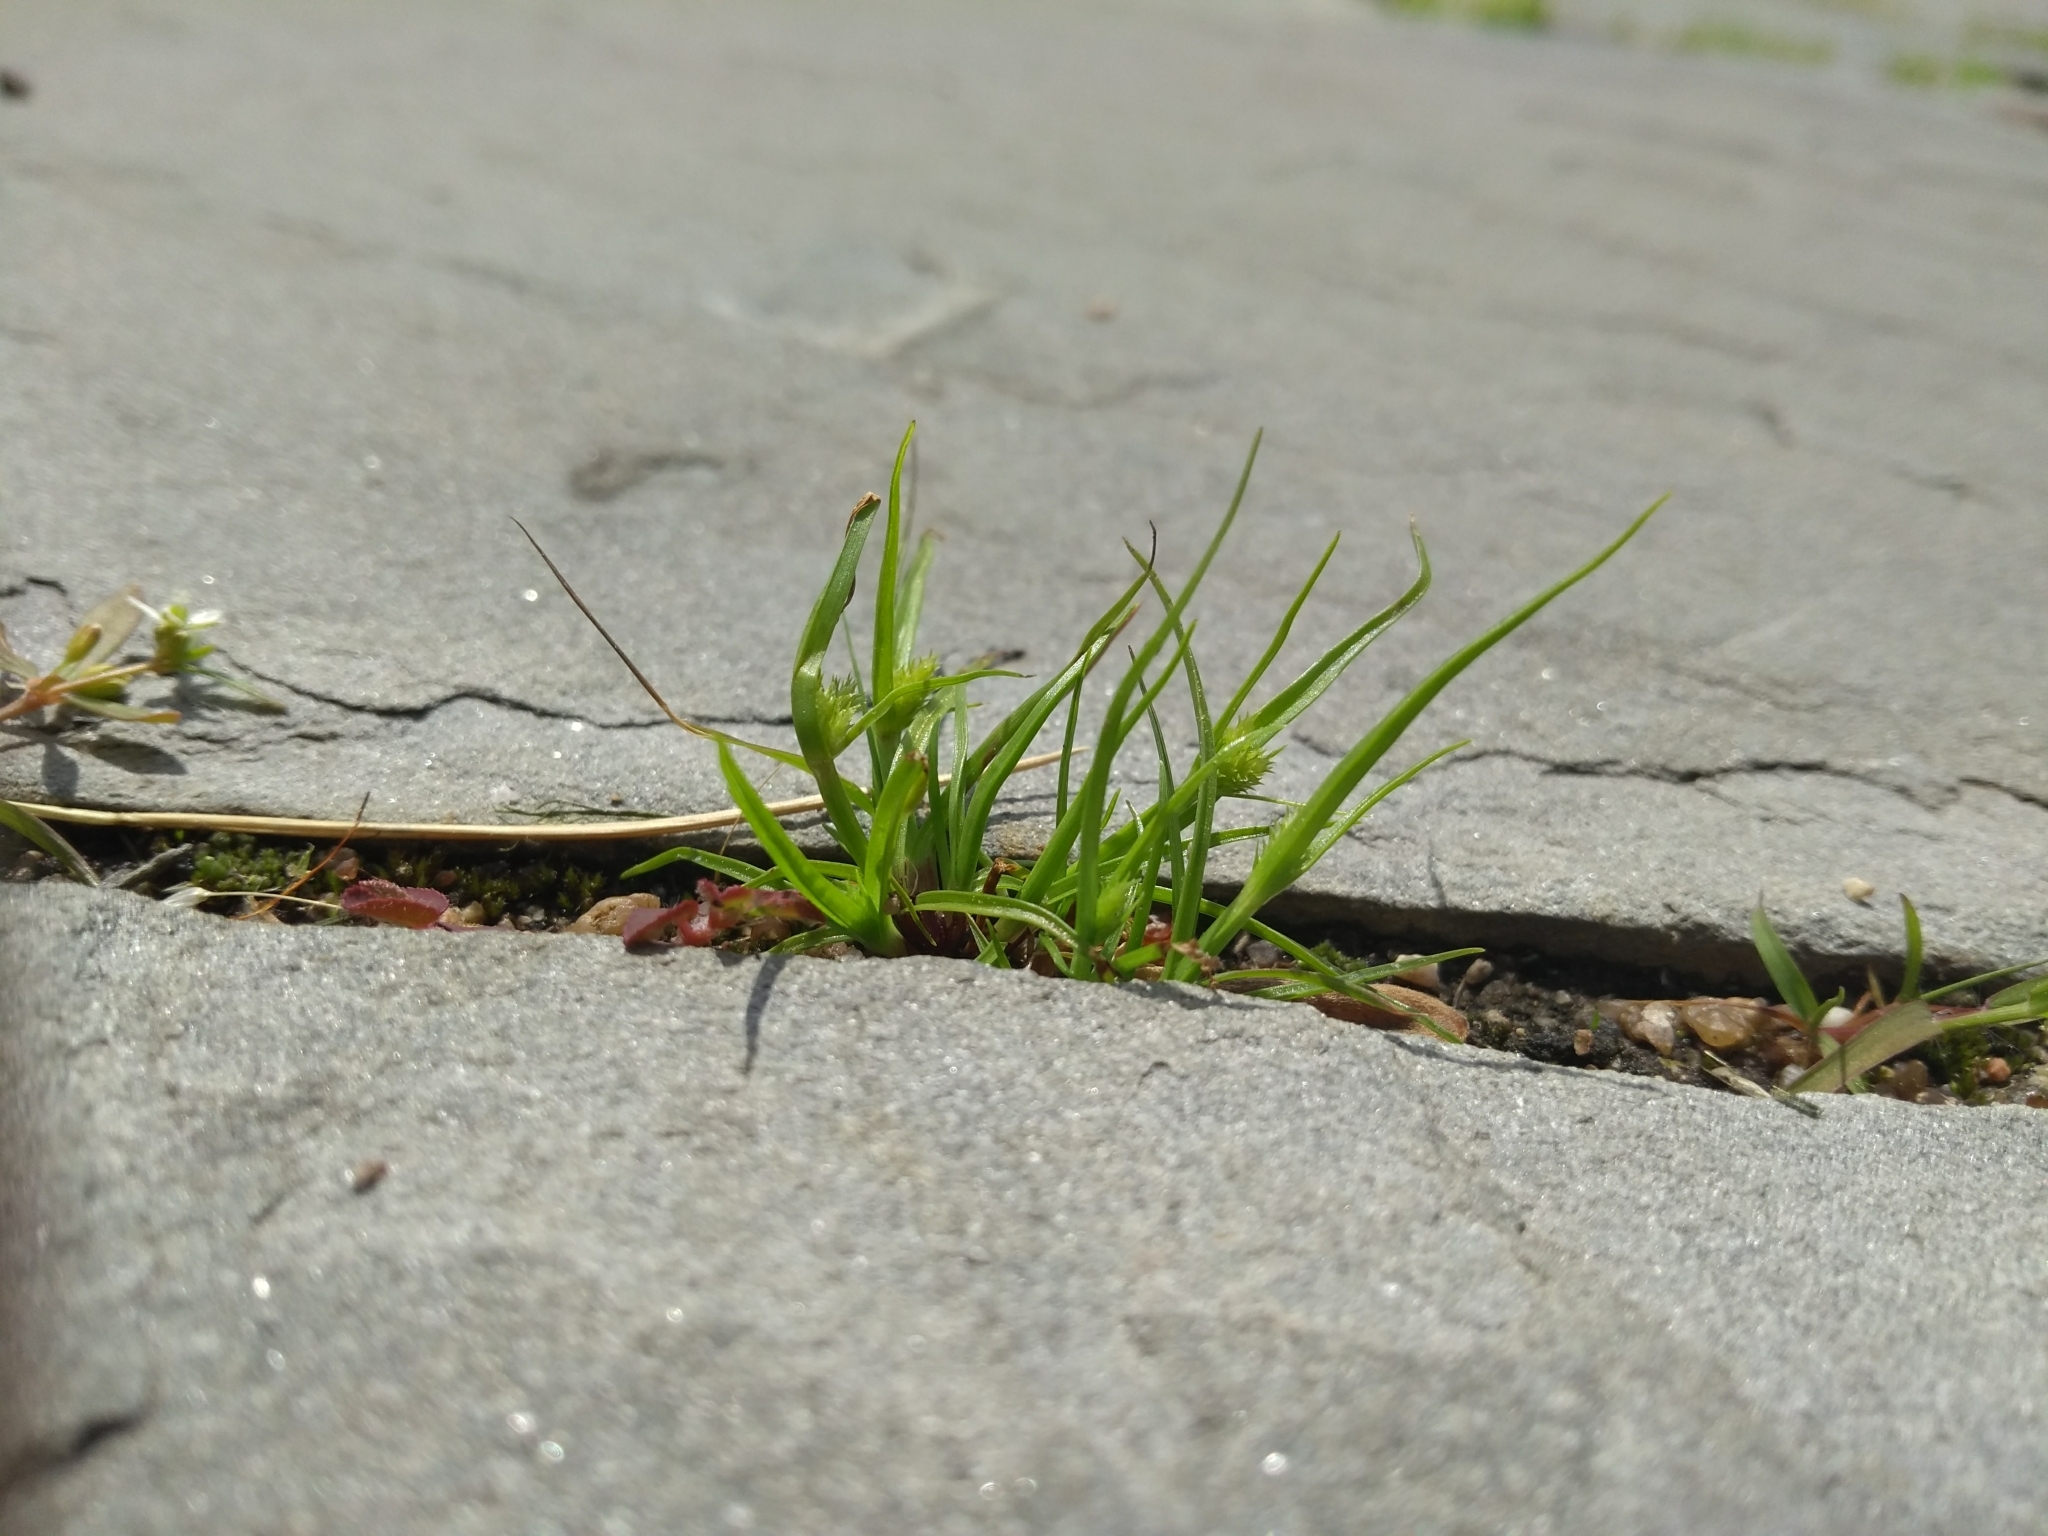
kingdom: Plantae
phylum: Tracheophyta
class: Liliopsida
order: Poales
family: Cyperaceae
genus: Cyperus
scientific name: Cyperus squarrosus
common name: Awned cyperus
